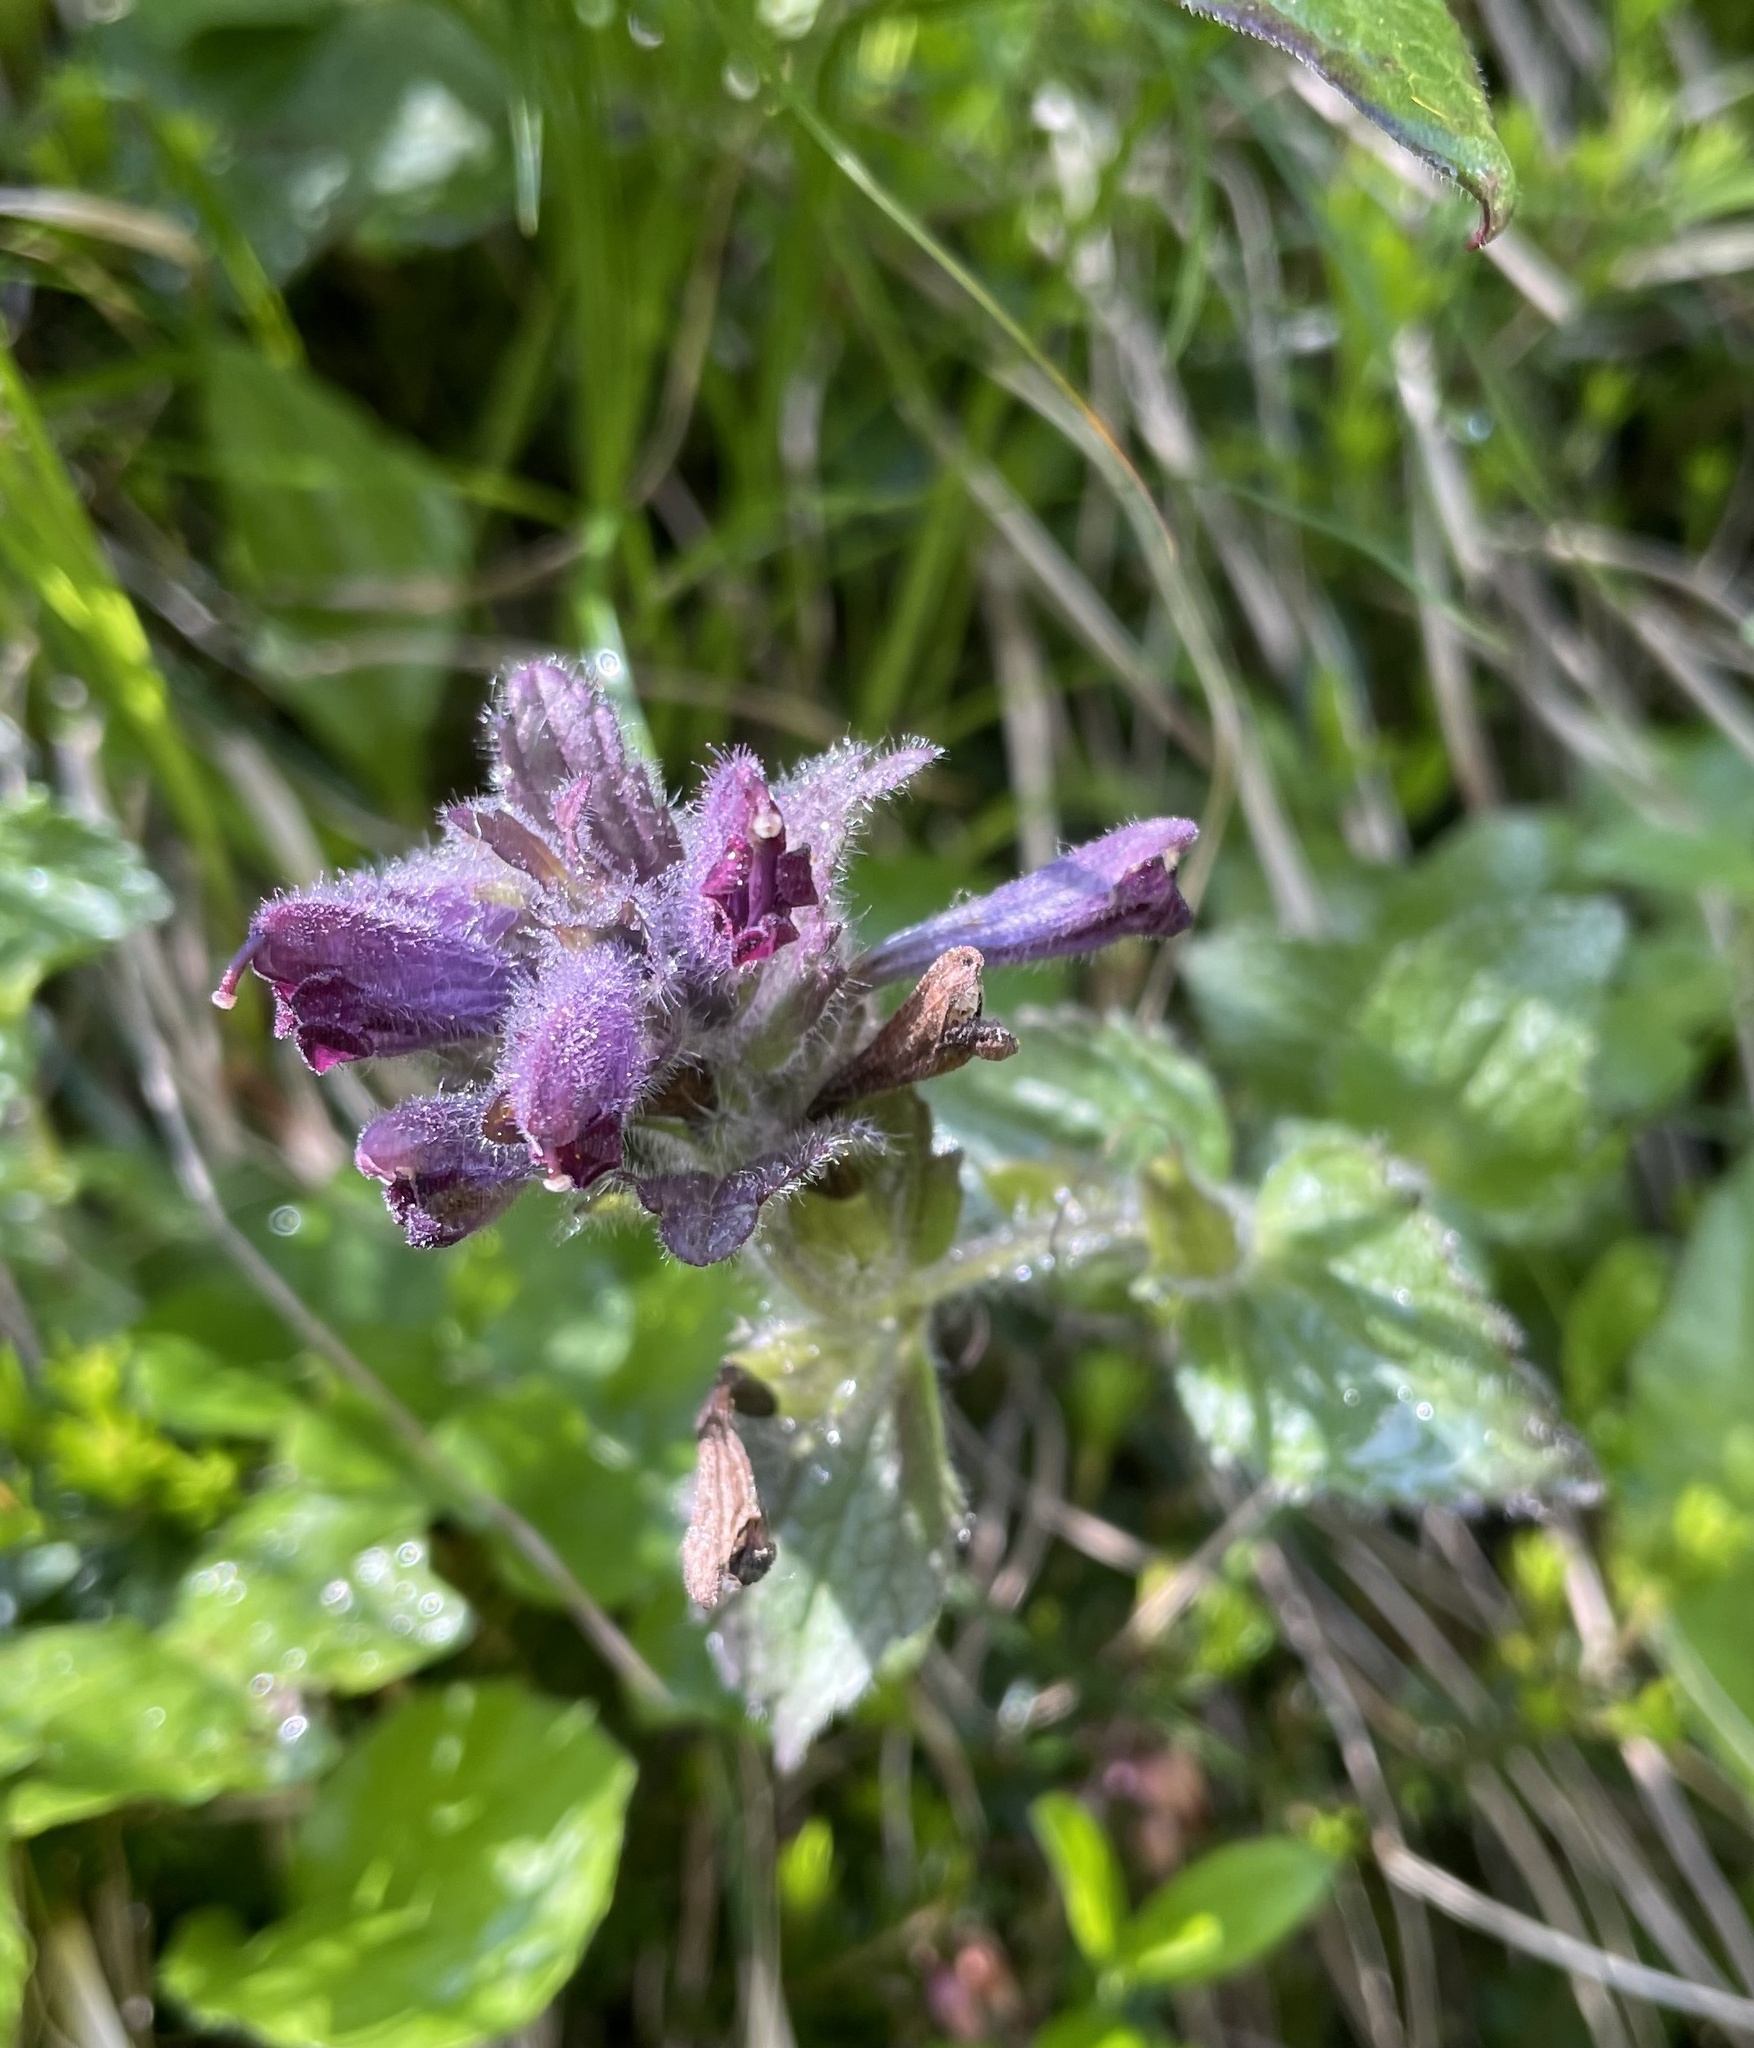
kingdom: Plantae
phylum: Tracheophyta
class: Magnoliopsida
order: Lamiales
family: Orobanchaceae
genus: Bartsia
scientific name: Bartsia alpina
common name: Alpine bartsia
